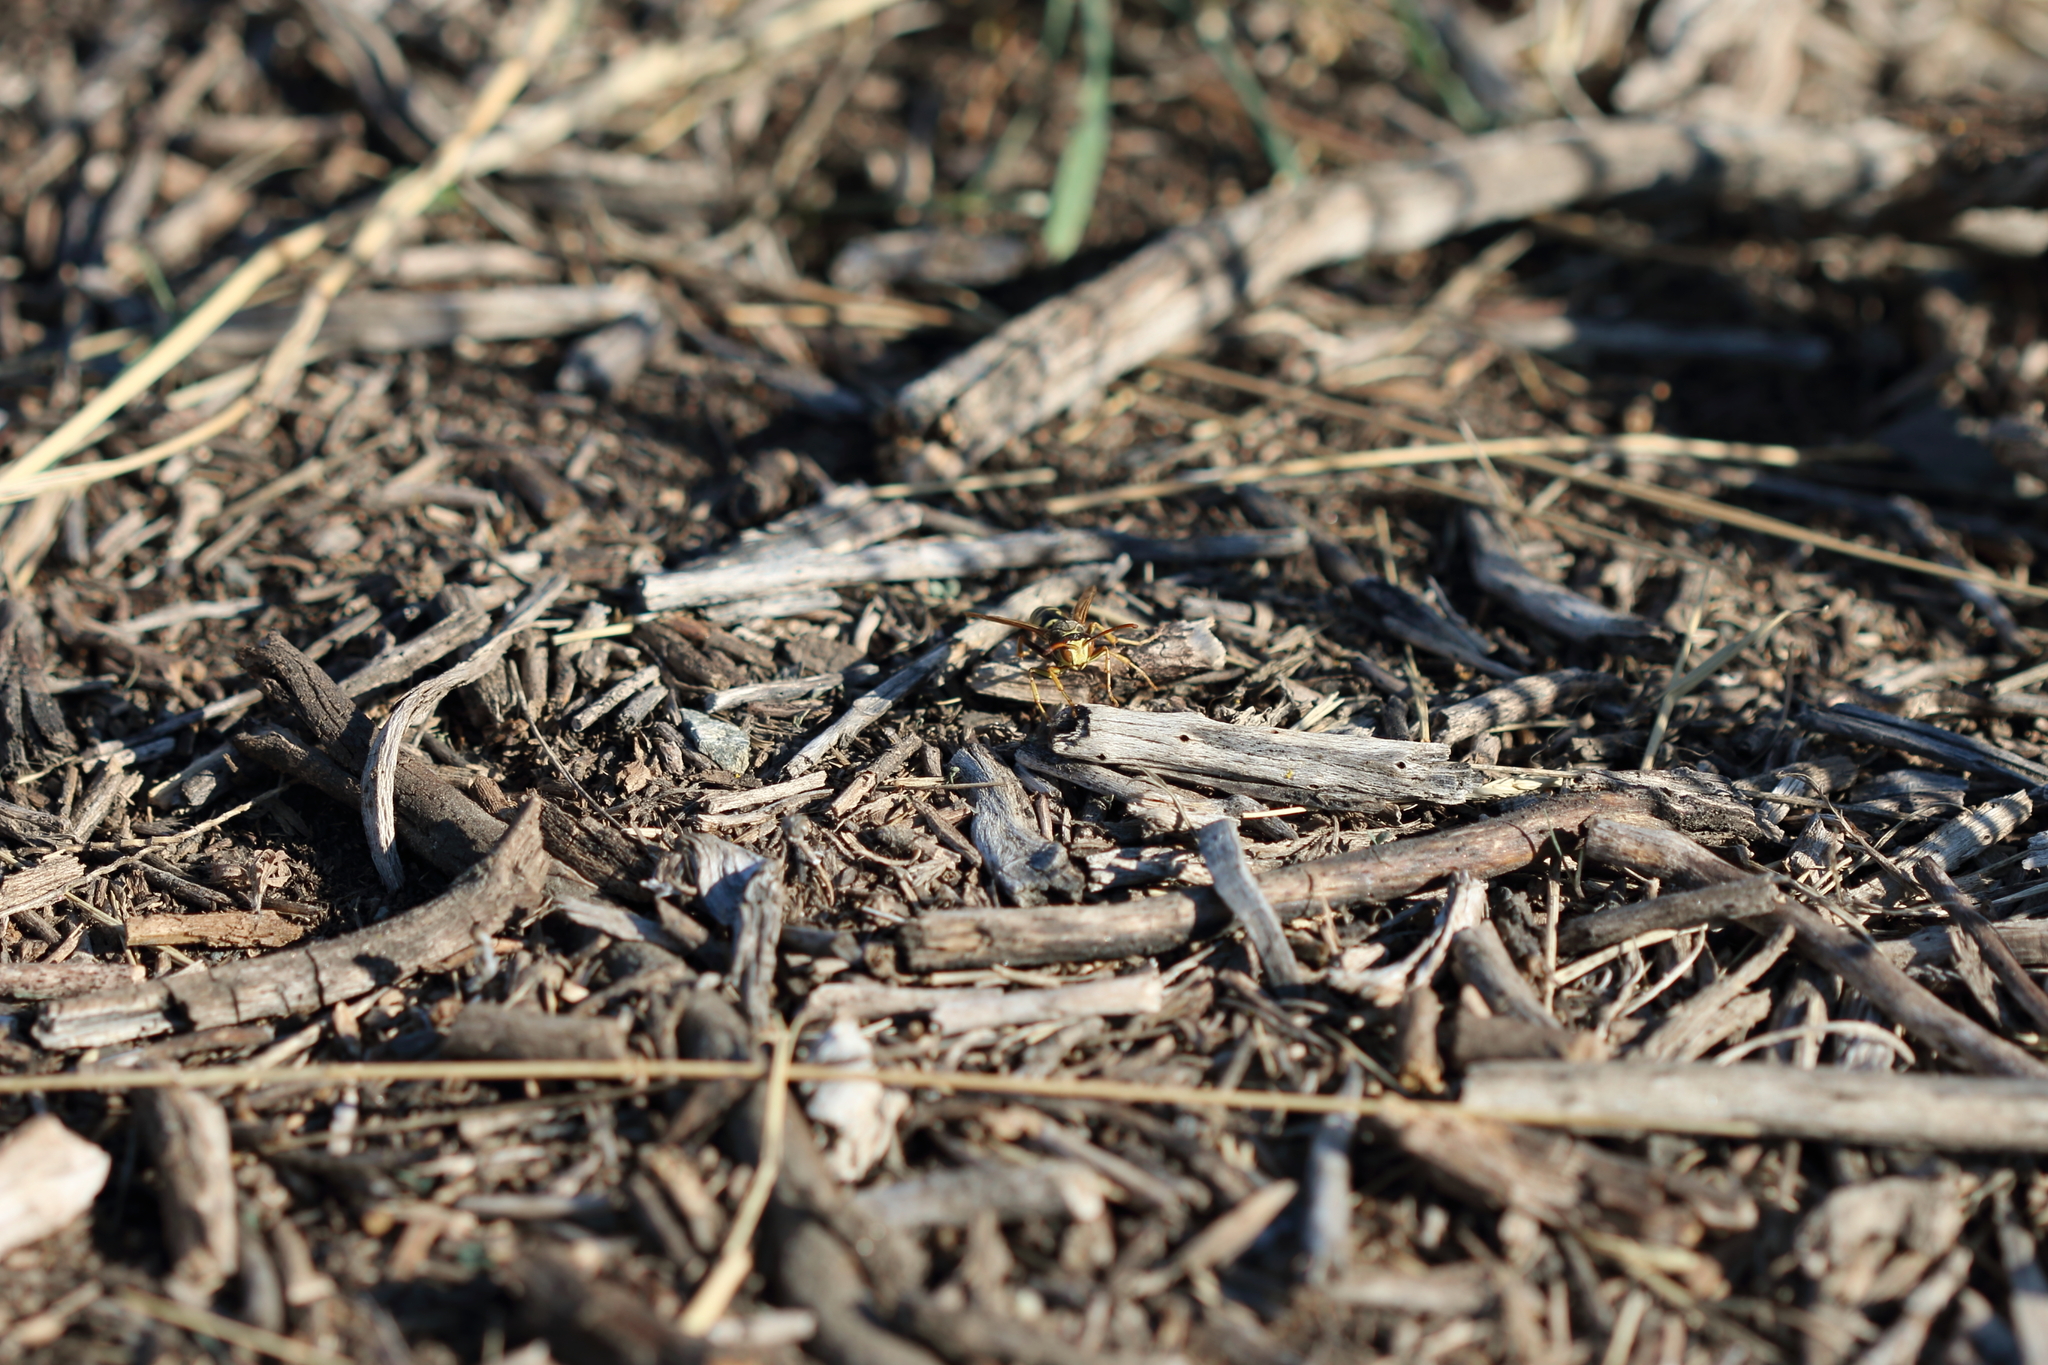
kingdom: Animalia
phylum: Arthropoda
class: Insecta
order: Hymenoptera
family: Eumenidae
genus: Polistes
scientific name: Polistes aurifer
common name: Paper wasp
